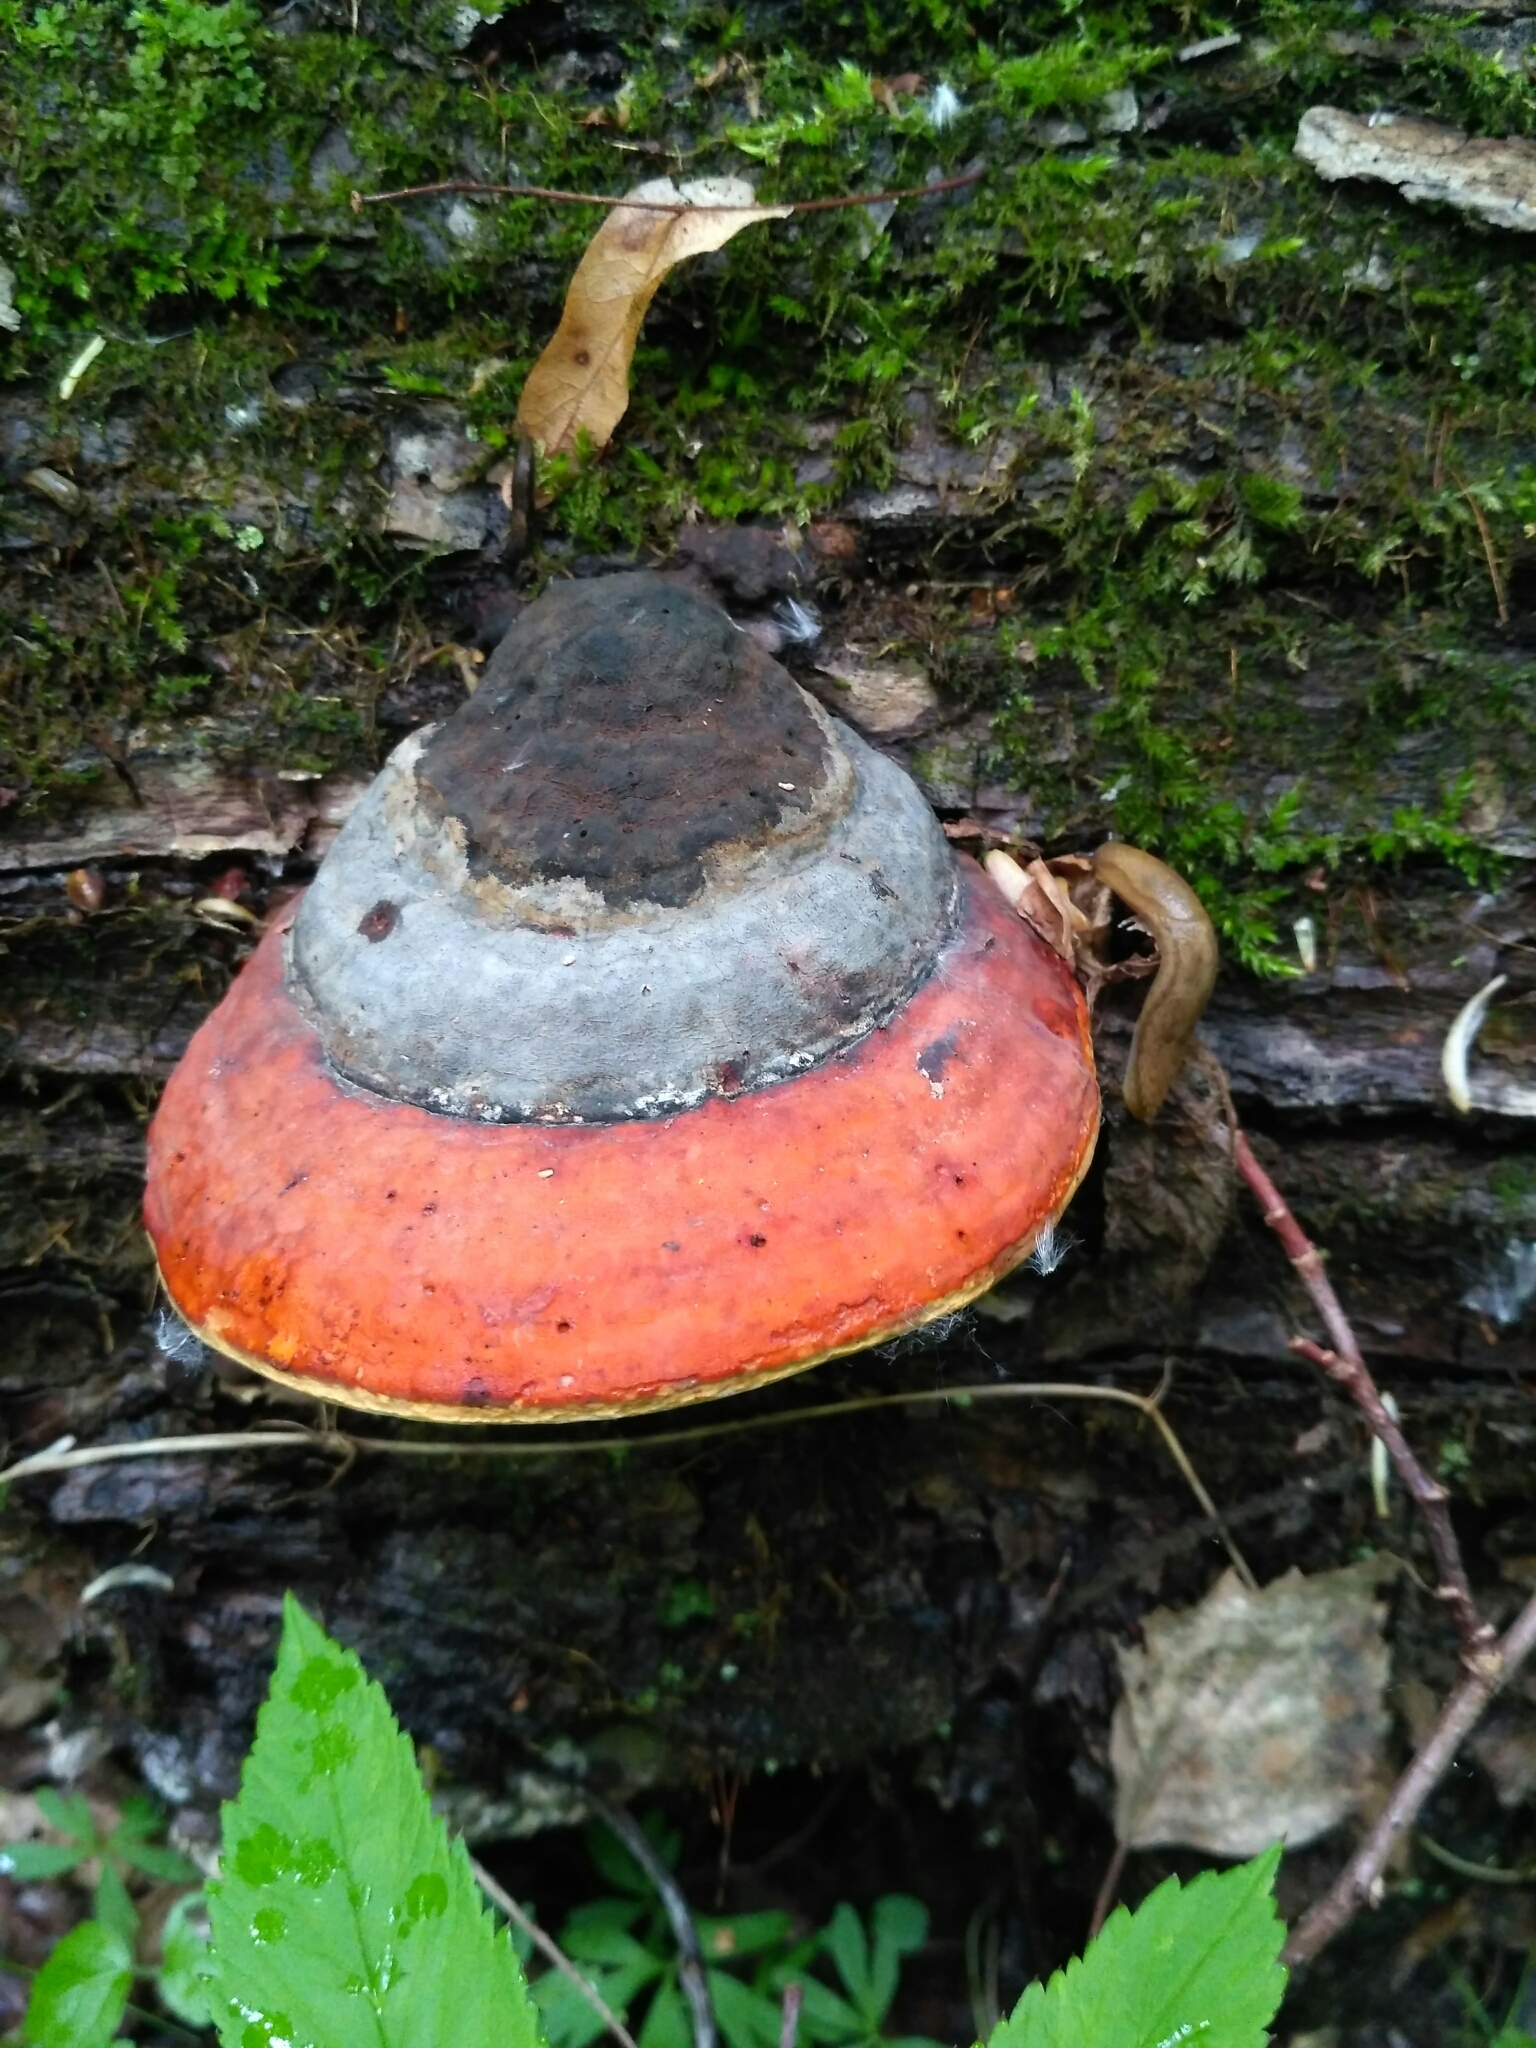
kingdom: Fungi
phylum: Basidiomycota
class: Agaricomycetes
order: Polyporales
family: Fomitopsidaceae
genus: Fomitopsis
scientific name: Fomitopsis pinicola
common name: Red-belted bracket
